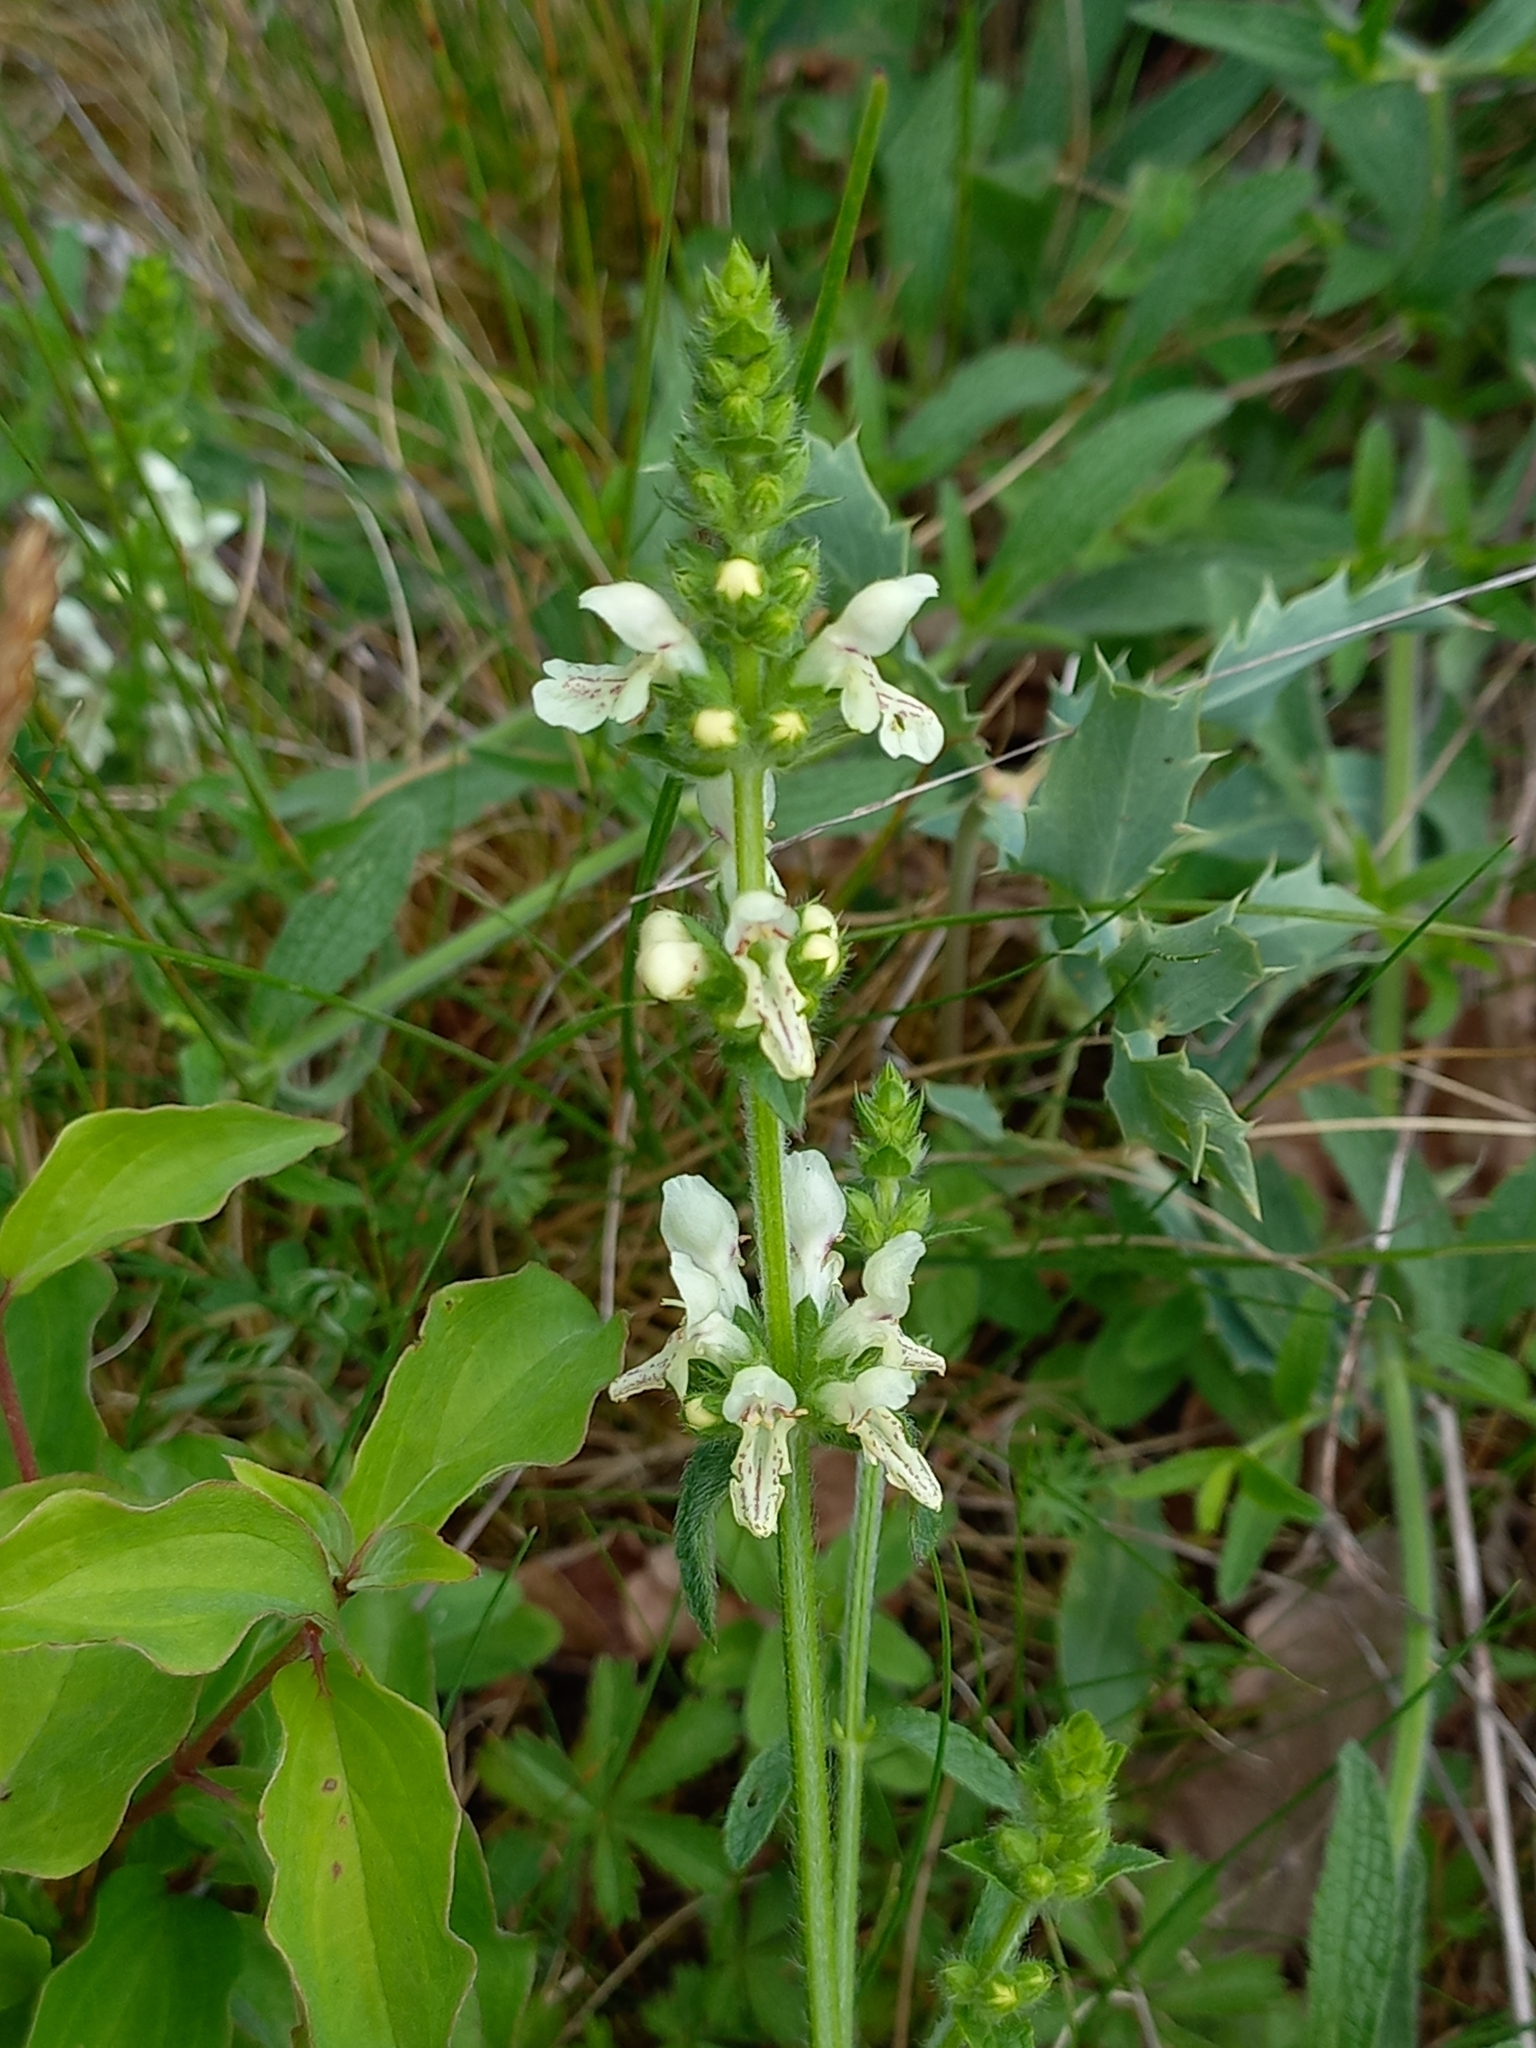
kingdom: Plantae
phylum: Tracheophyta
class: Magnoliopsida
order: Lamiales
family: Lamiaceae
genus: Stachys
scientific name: Stachys recta
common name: Perennial yellow-woundwort
